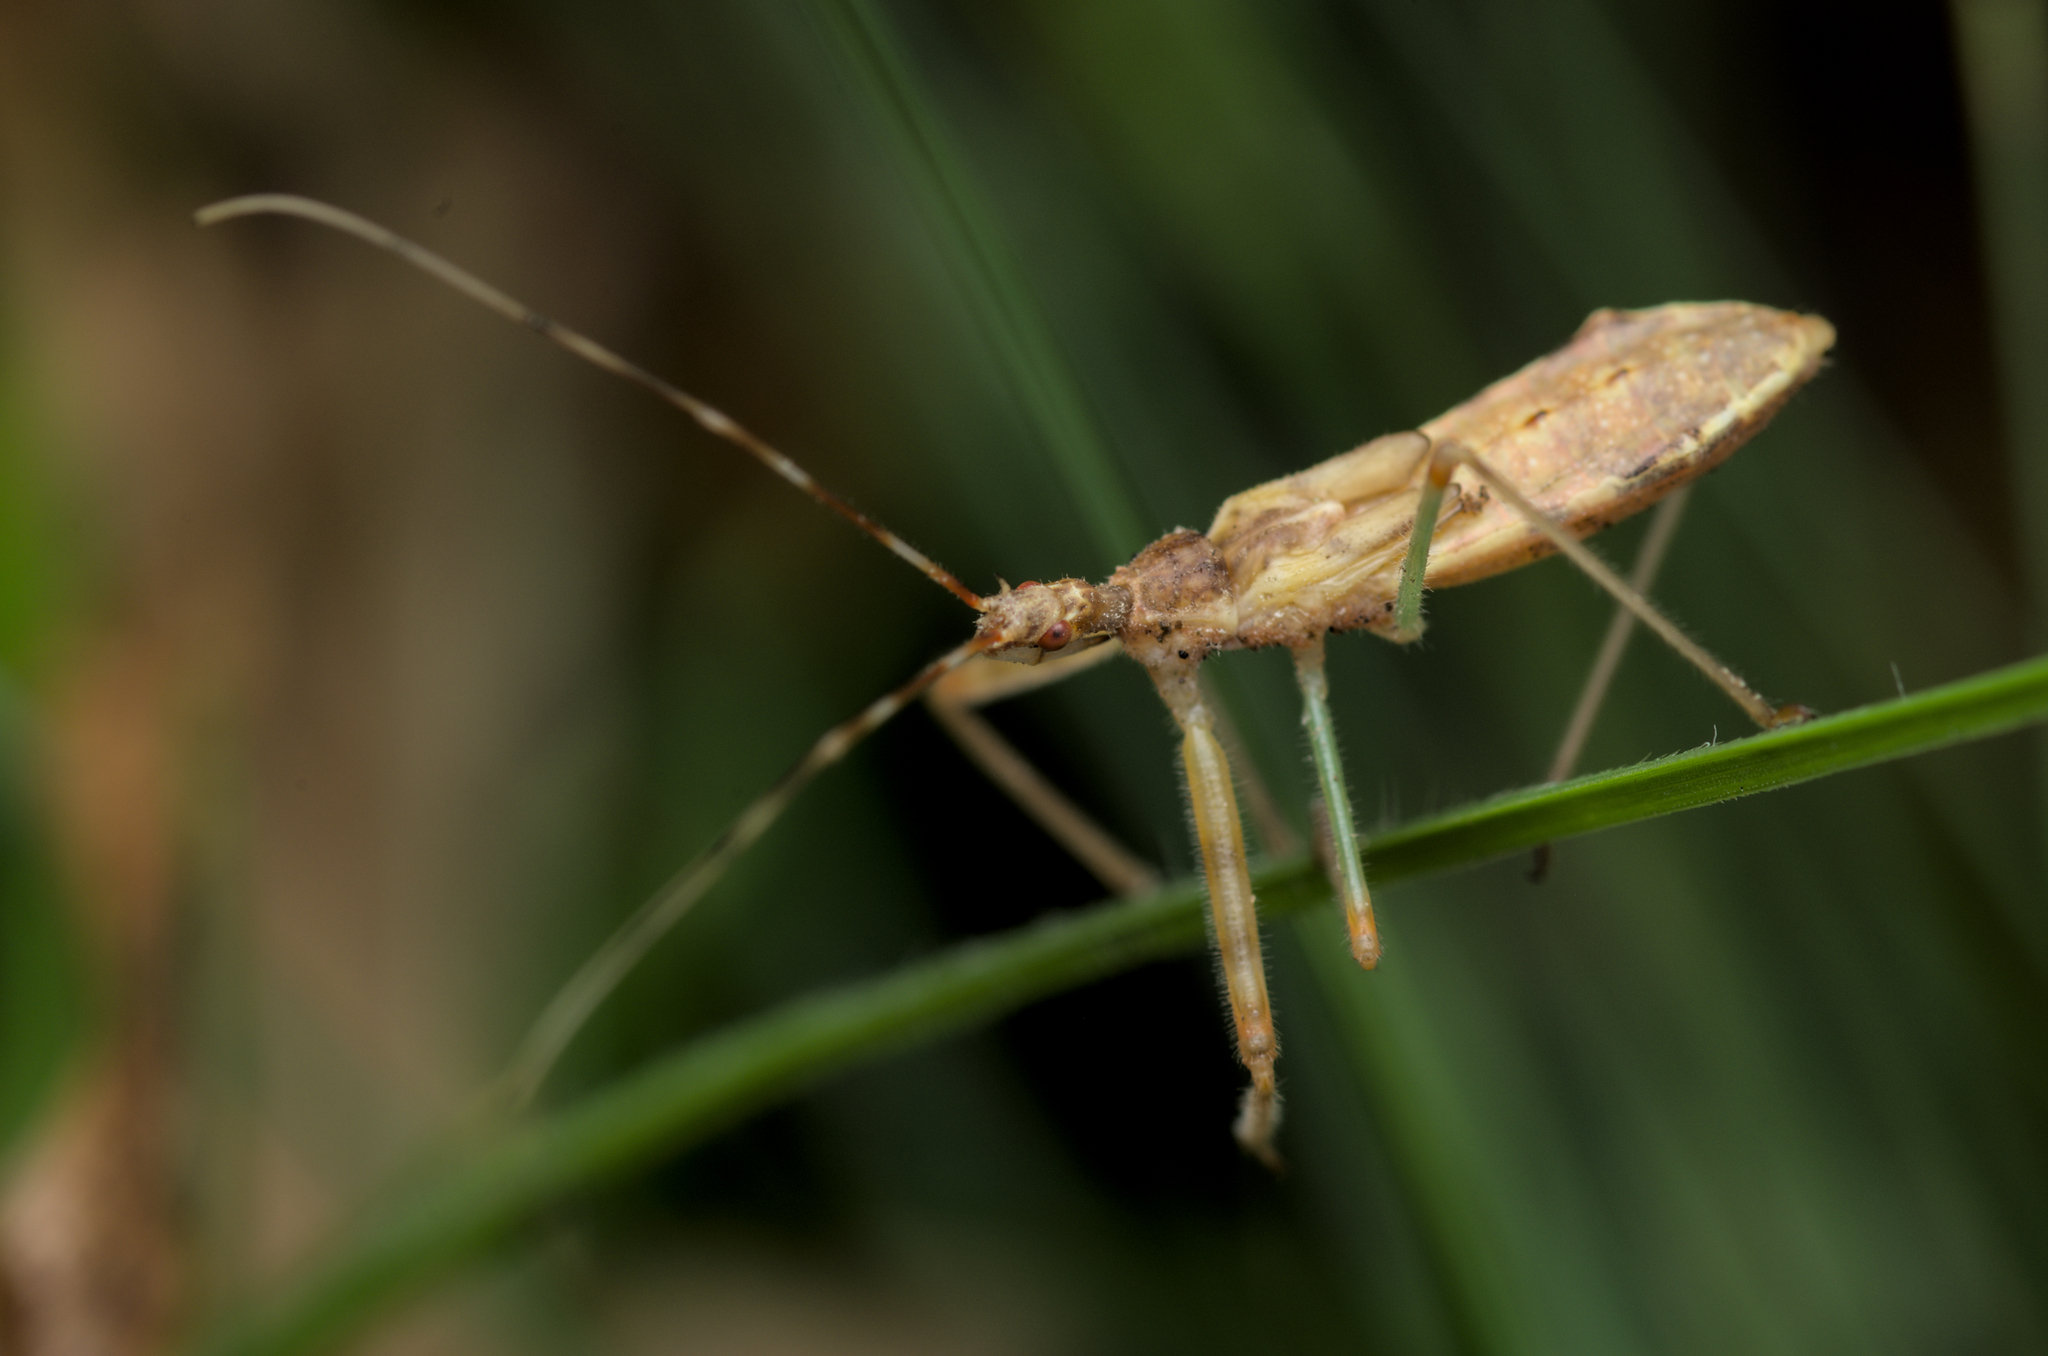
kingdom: Animalia
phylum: Arthropoda
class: Insecta
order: Hemiptera
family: Reduviidae
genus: Nagusta
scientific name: Nagusta goedelii
